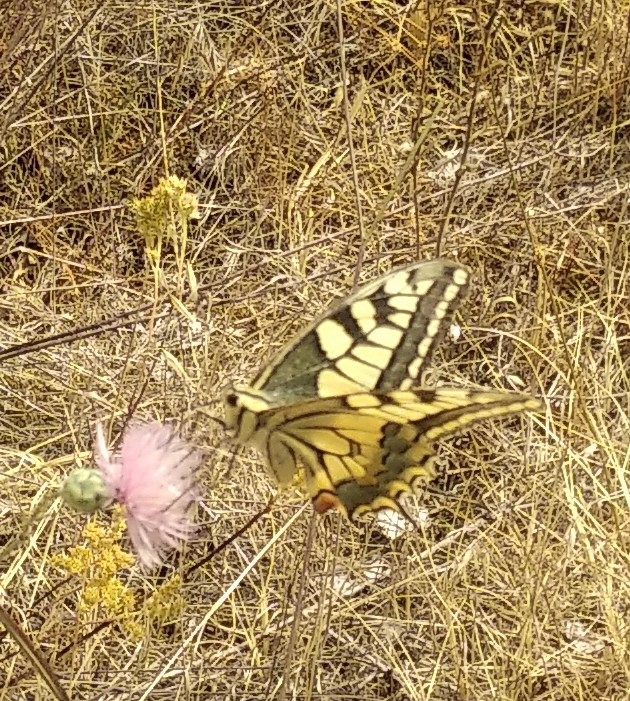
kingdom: Animalia
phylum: Arthropoda
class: Insecta
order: Lepidoptera
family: Papilionidae
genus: Papilio
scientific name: Papilio machaon
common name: Swallowtail
